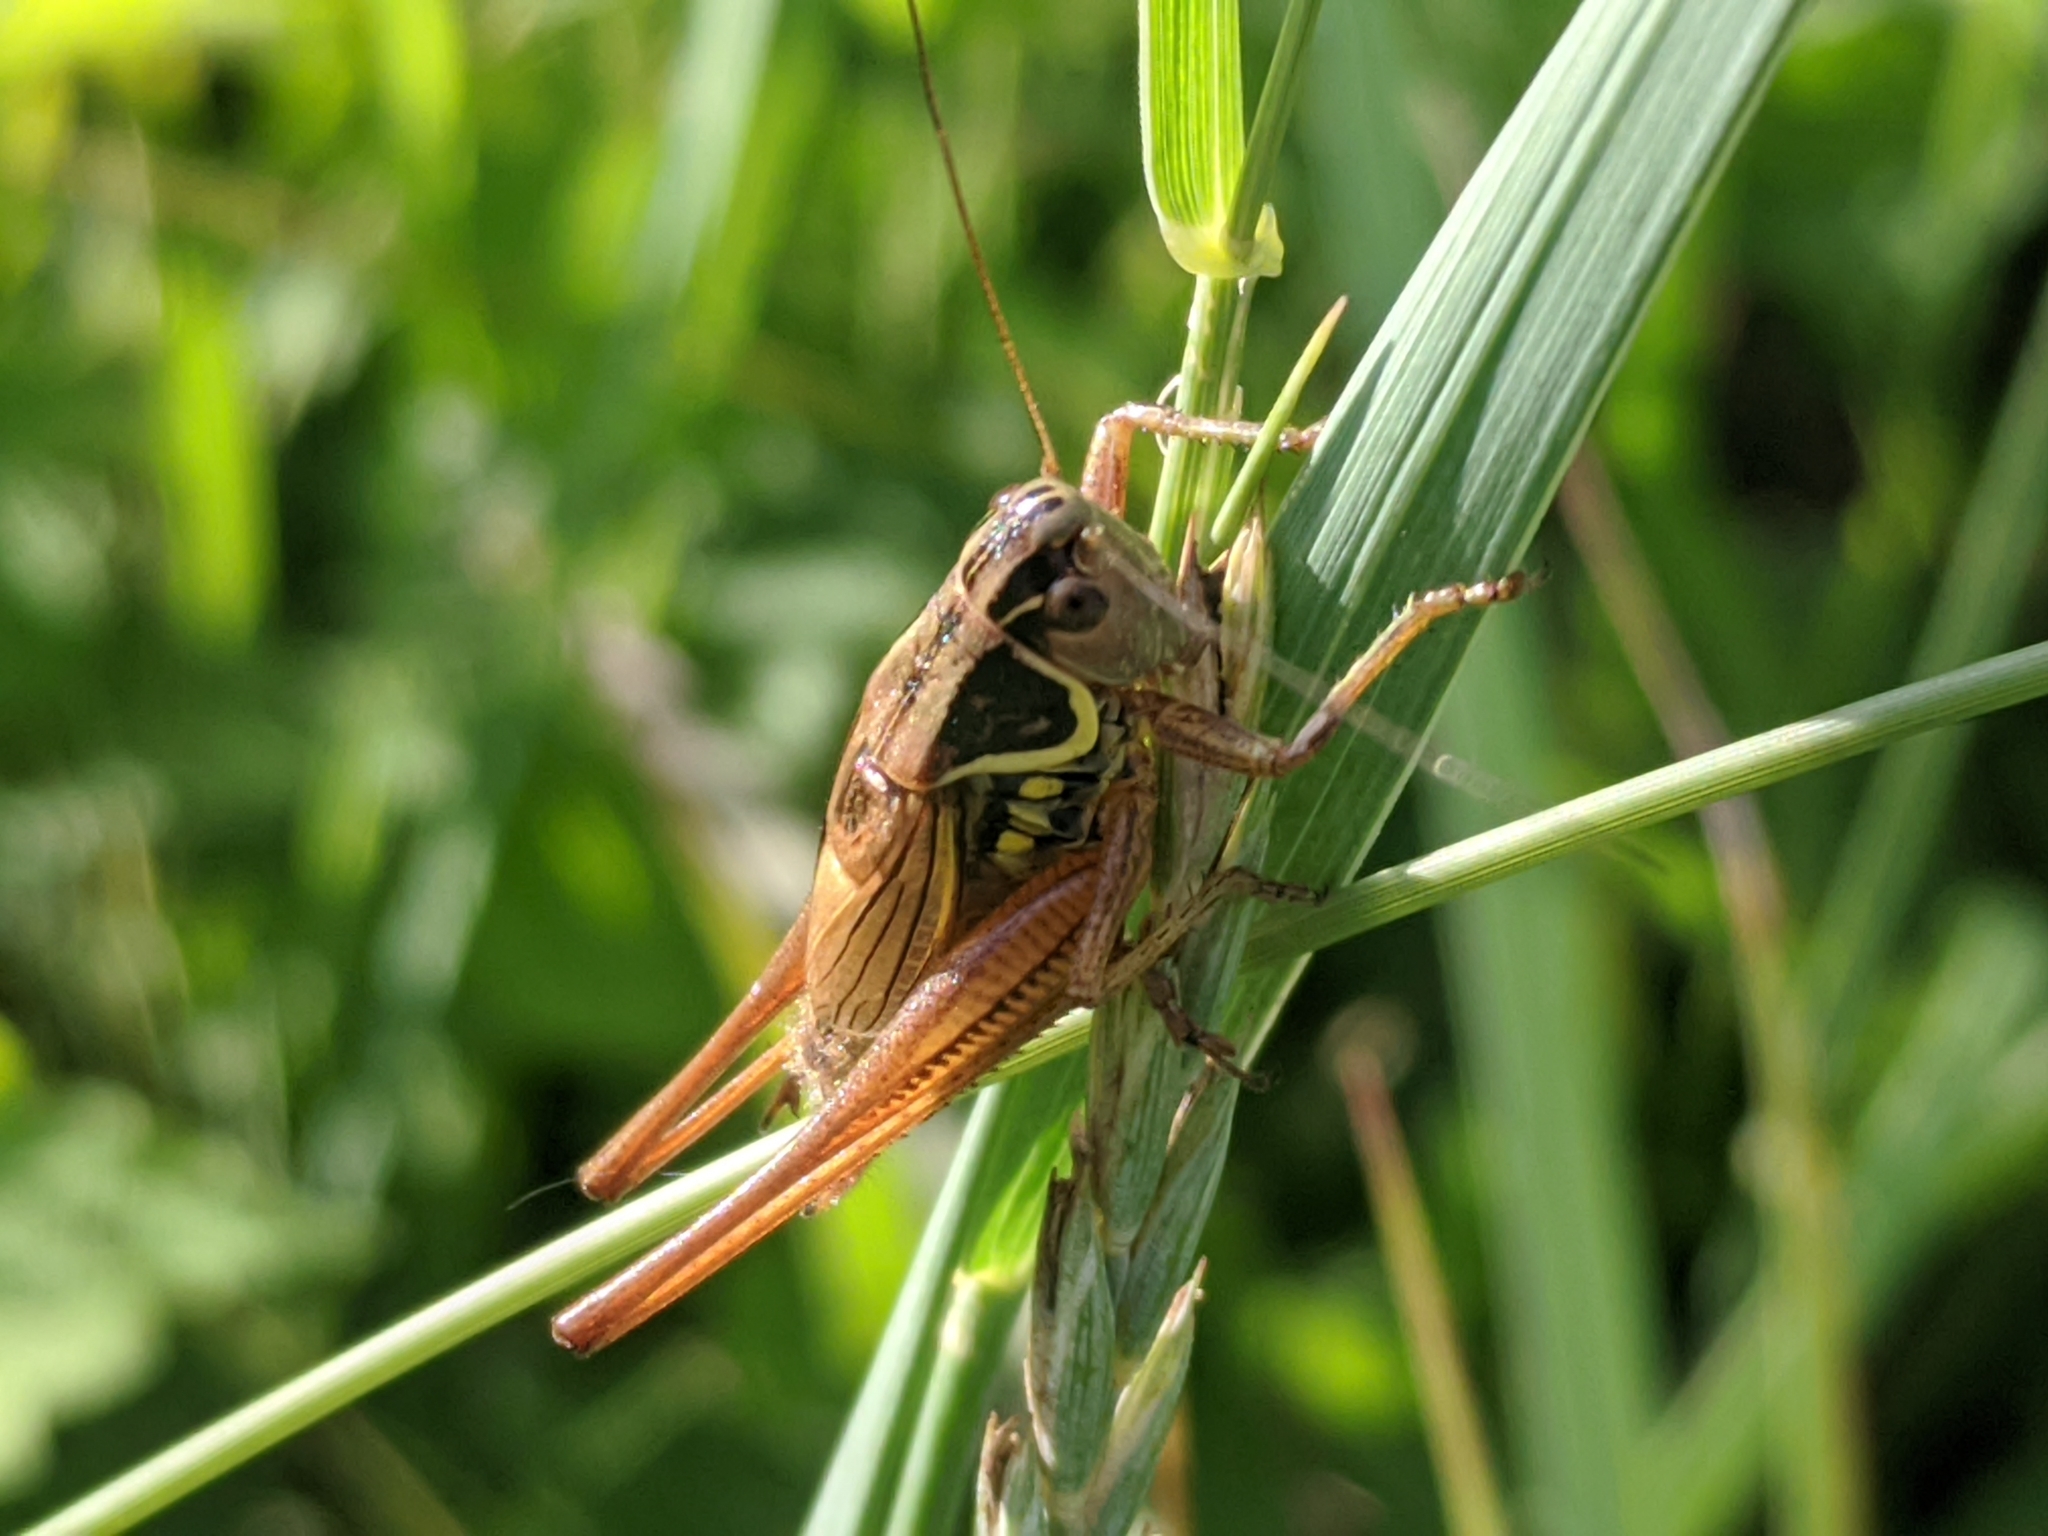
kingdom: Animalia
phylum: Arthropoda
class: Insecta
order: Orthoptera
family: Tettigoniidae
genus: Roeseliana
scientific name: Roeseliana roeselii
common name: Roesel's bush cricket
